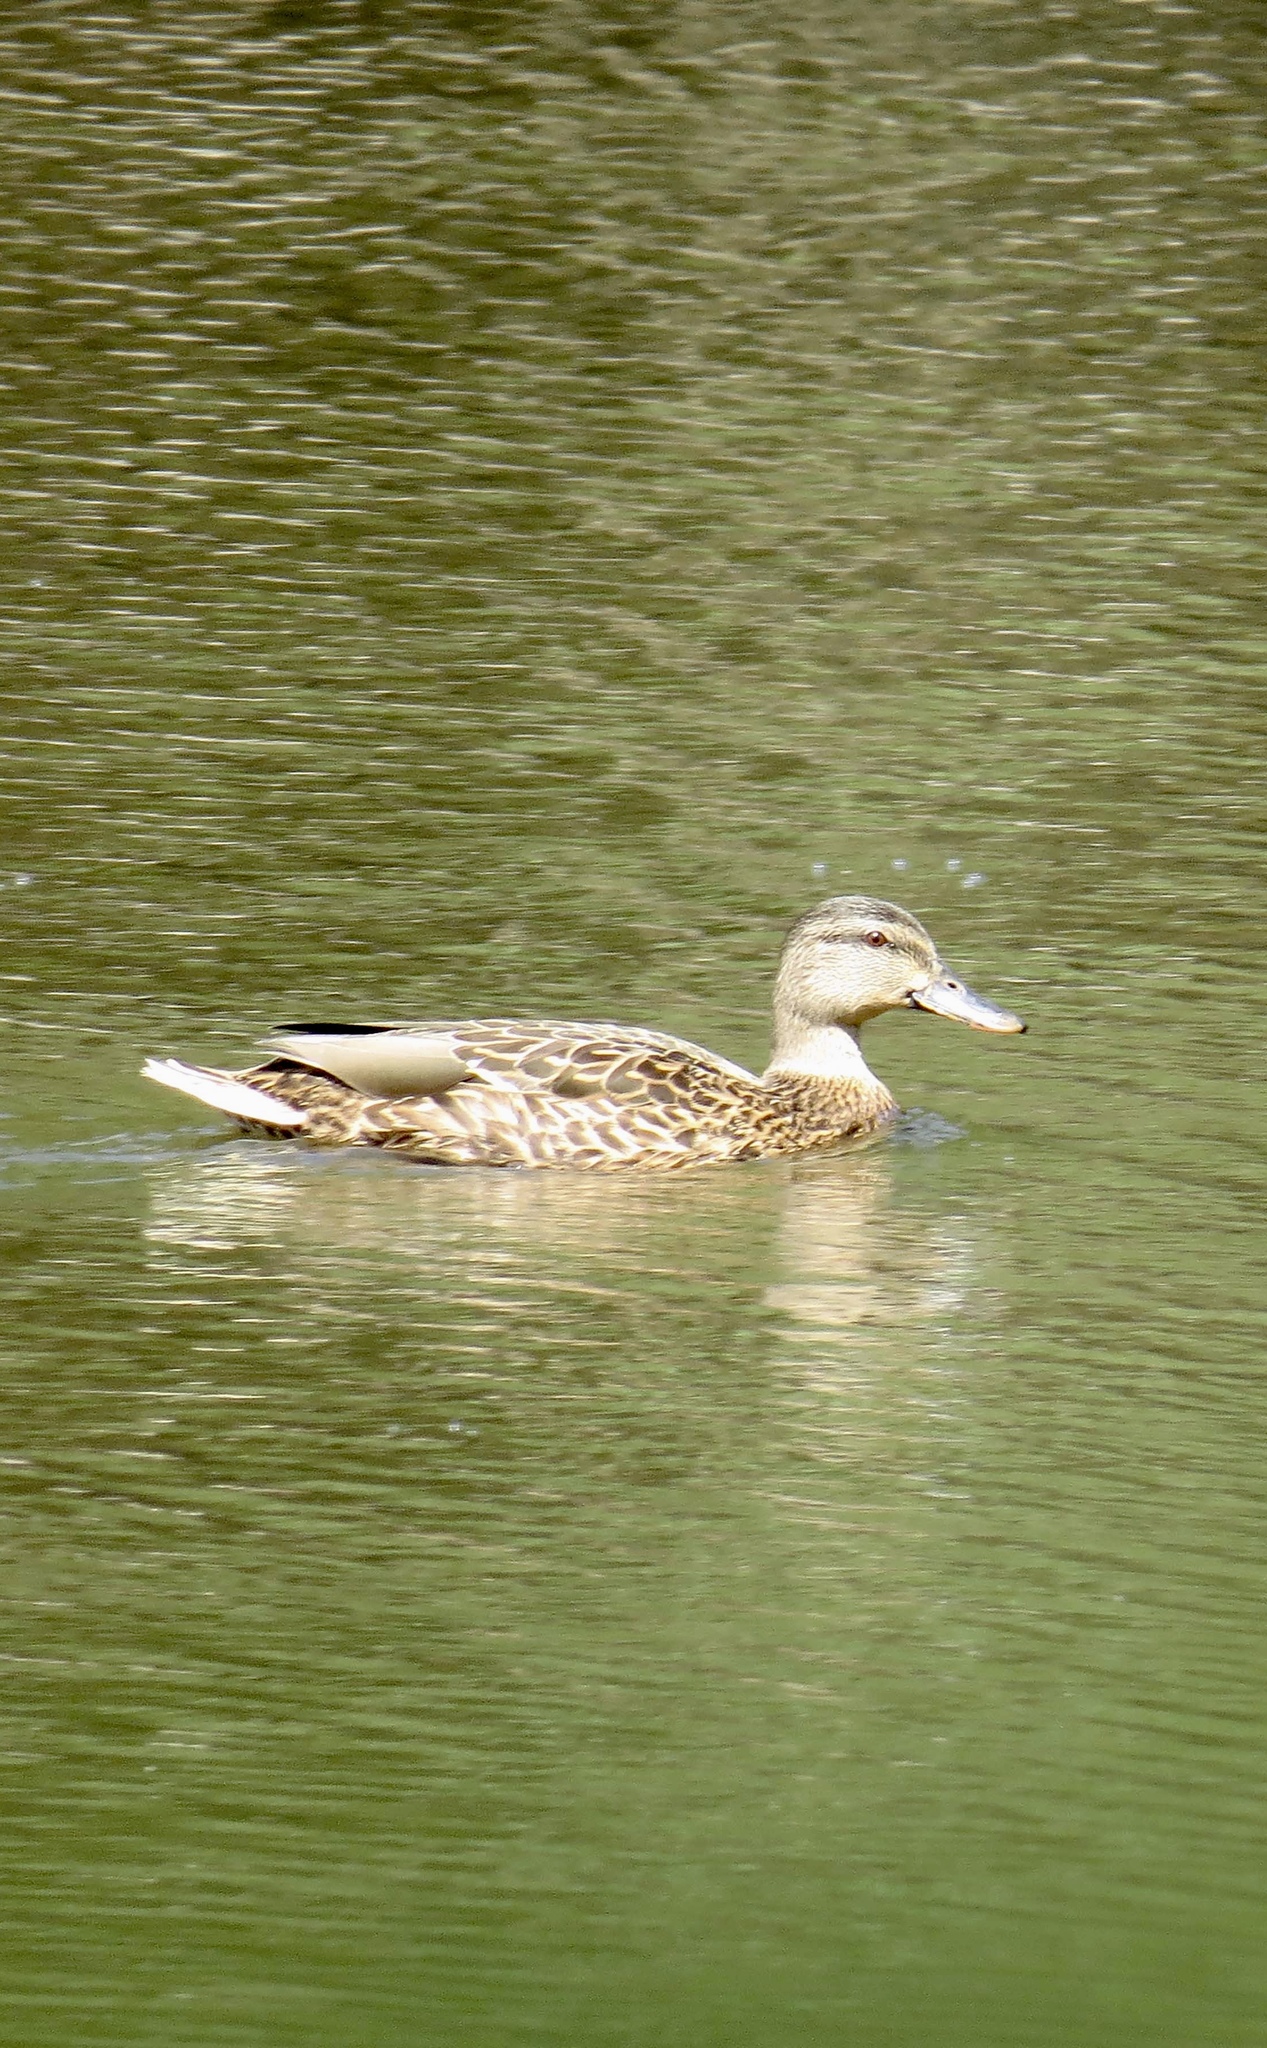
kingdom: Animalia
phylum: Chordata
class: Aves
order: Anseriformes
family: Anatidae
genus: Anas
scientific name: Anas platyrhynchos
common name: Mallard
